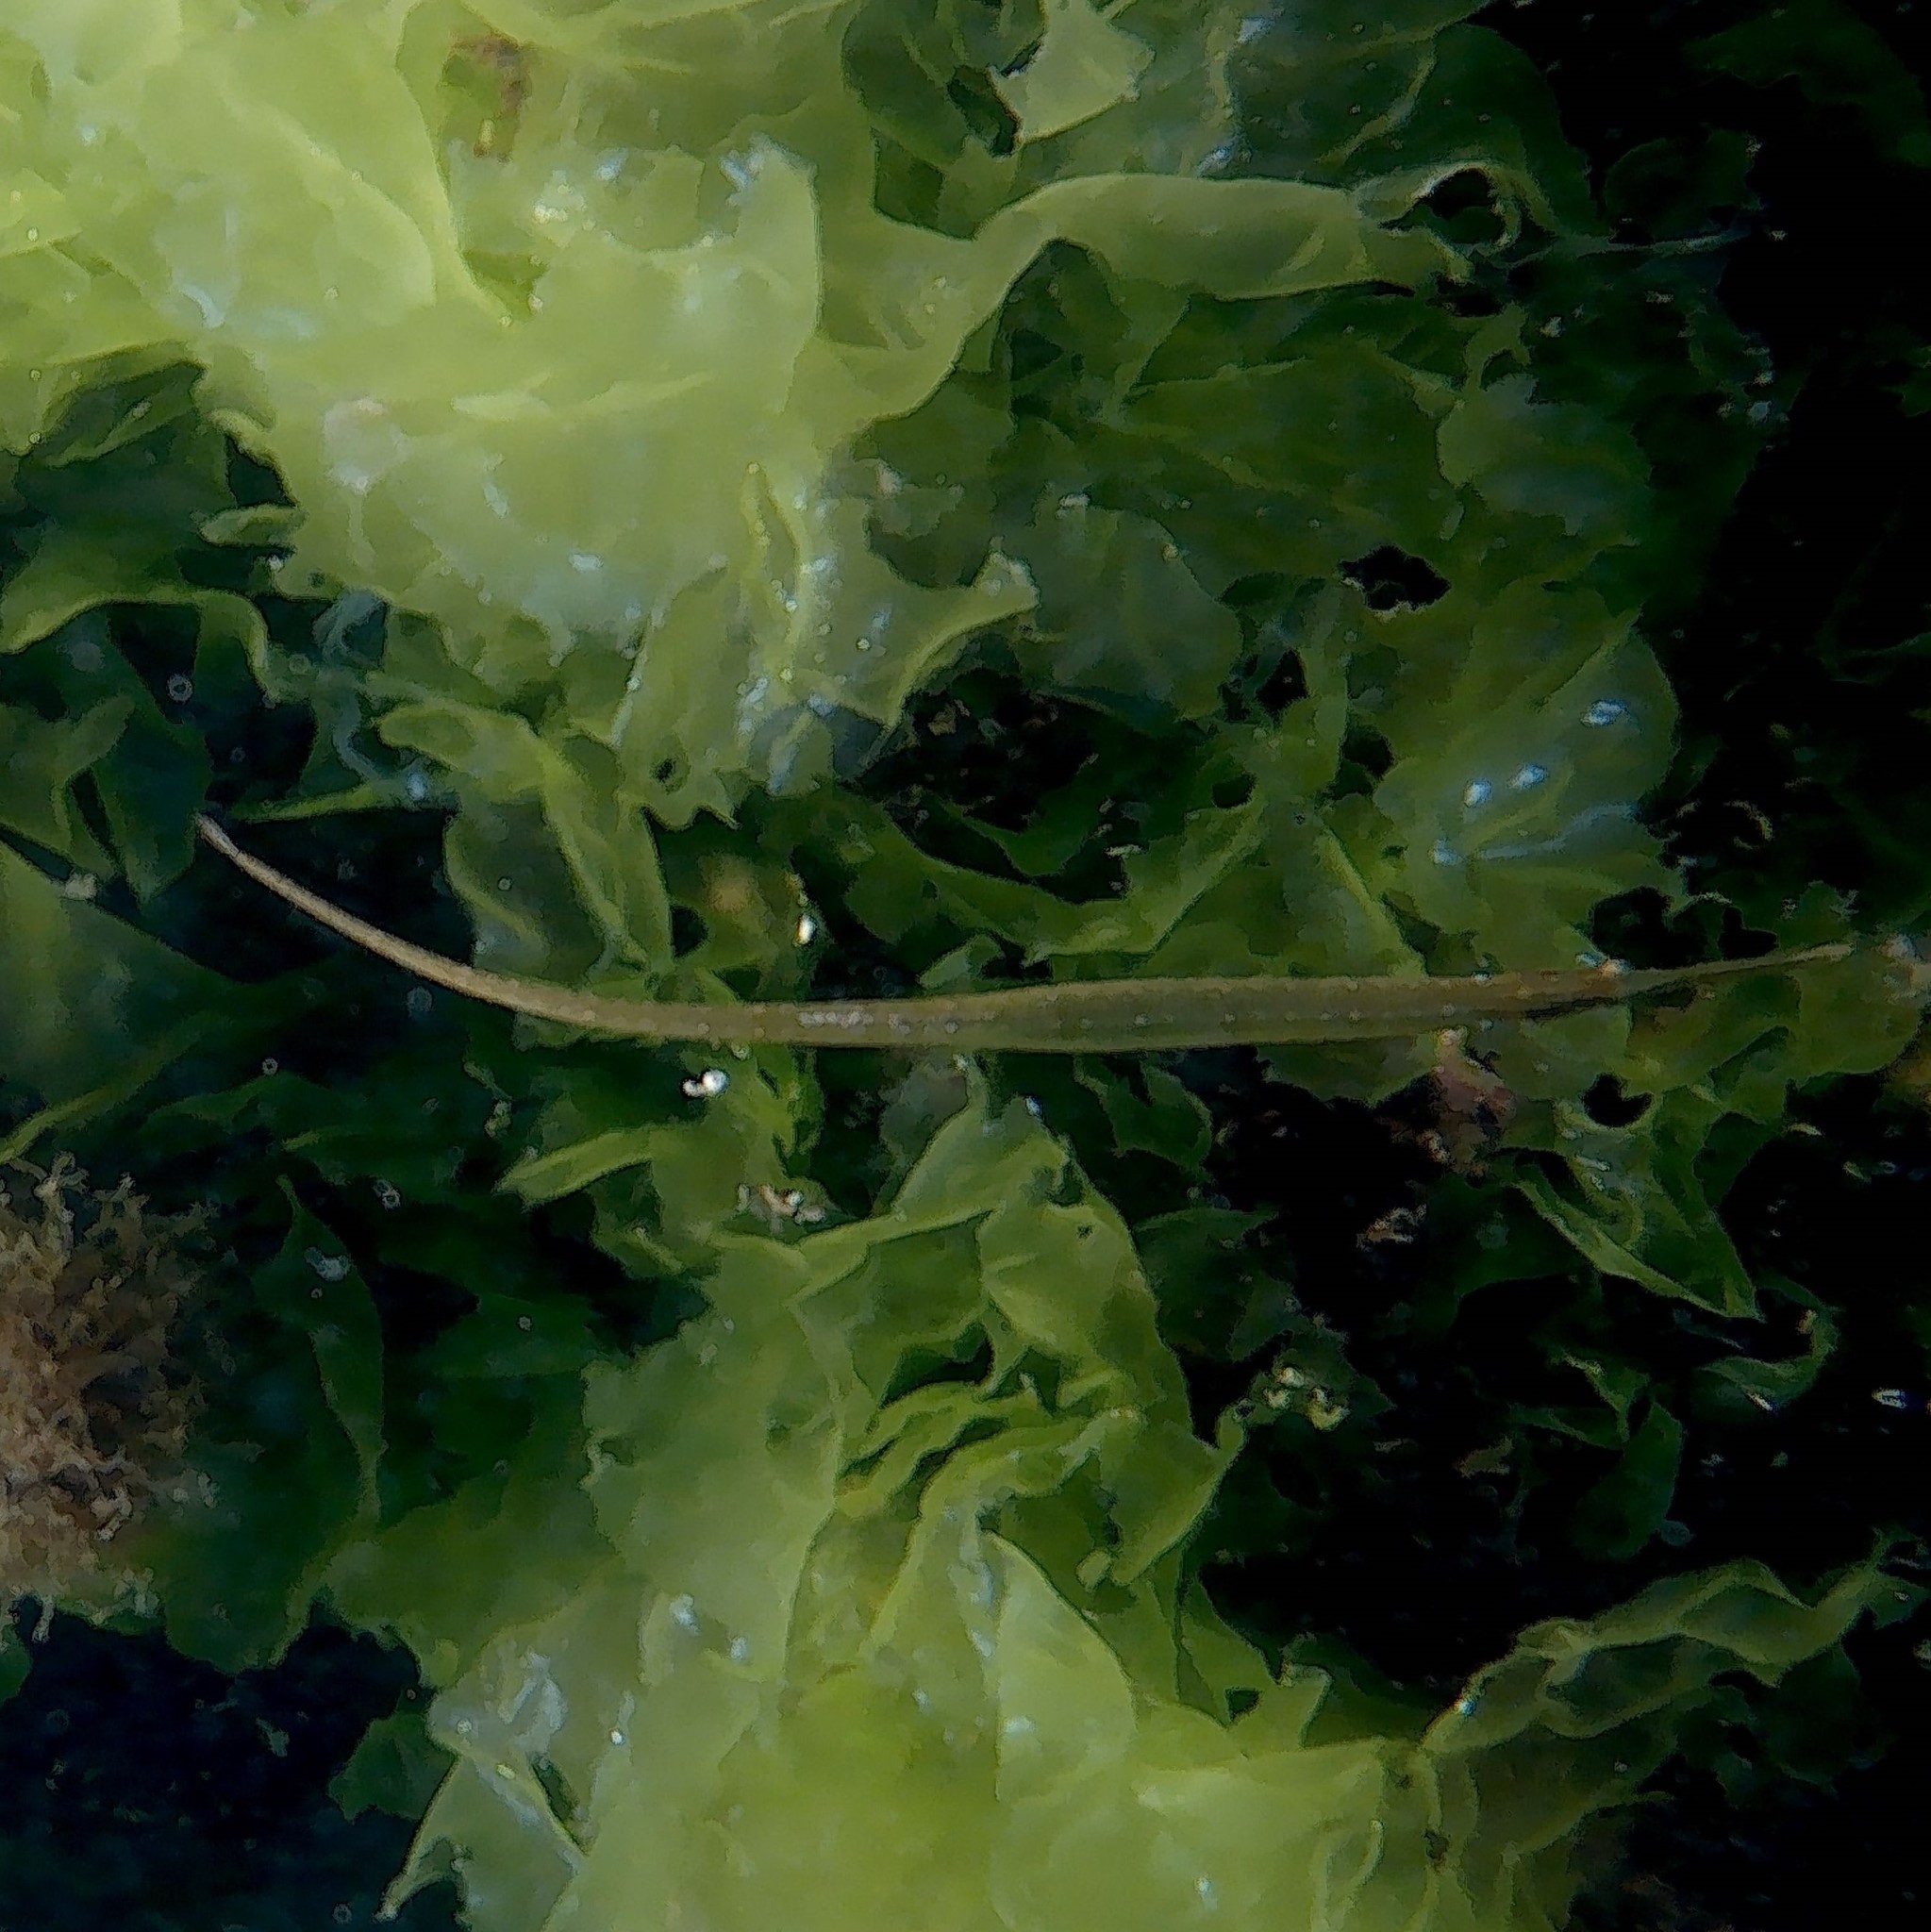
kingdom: Animalia
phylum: Chordata
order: Syngnathiformes
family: Syngnathidae
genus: Syngnathus
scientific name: Syngnathus typhle
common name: Deep-snouted pipefish
